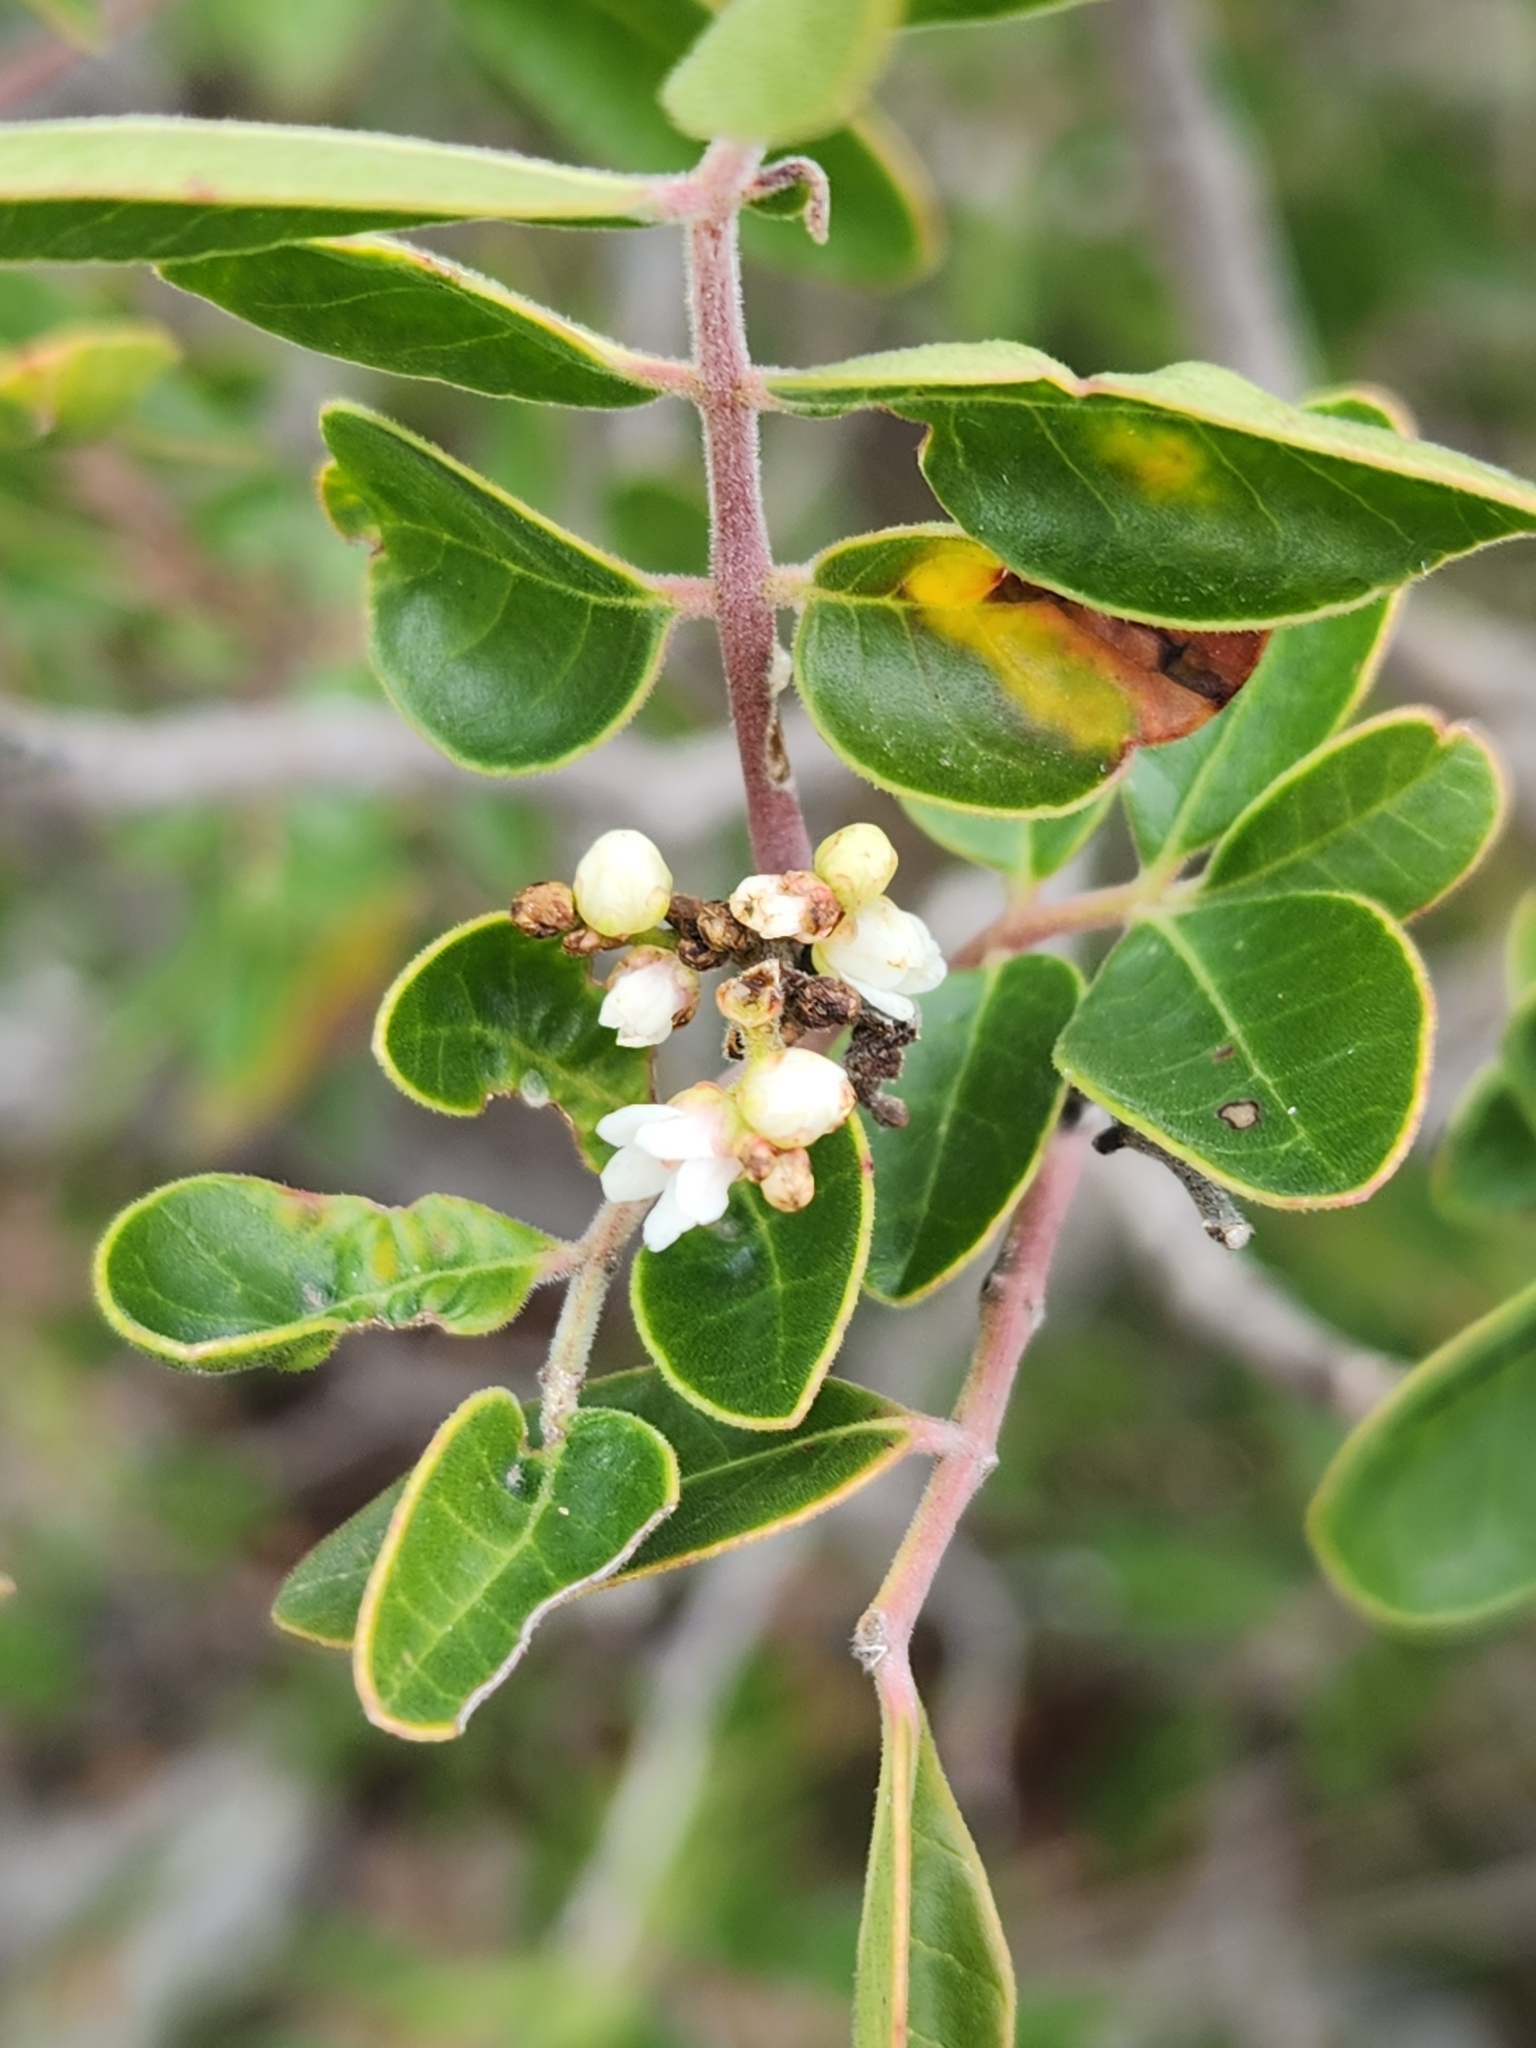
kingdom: Plantae
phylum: Tracheophyta
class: Magnoliopsida
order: Sapindales
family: Anacardiaceae
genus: Rhus
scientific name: Rhus virens
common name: Evergreen sumac
